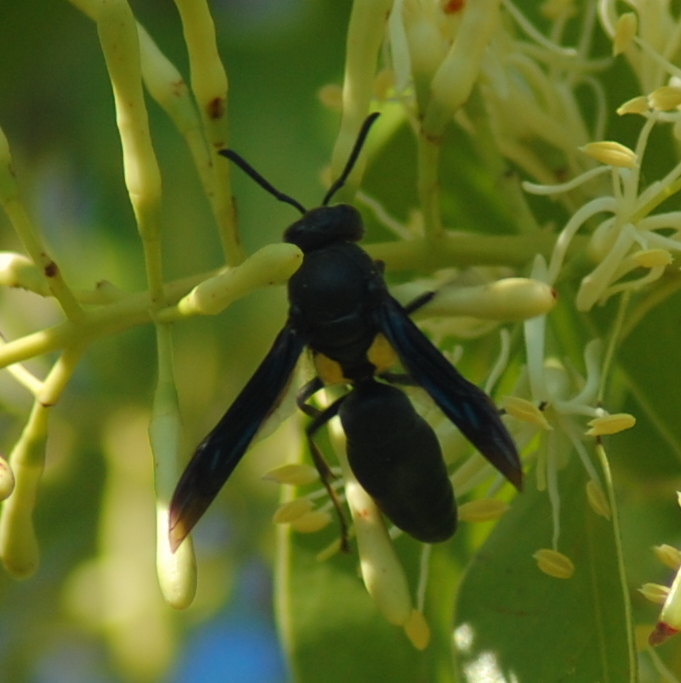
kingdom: Animalia
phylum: Arthropoda
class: Insecta
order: Hymenoptera
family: Eumenidae
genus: Monobia
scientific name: Monobia angulosa
